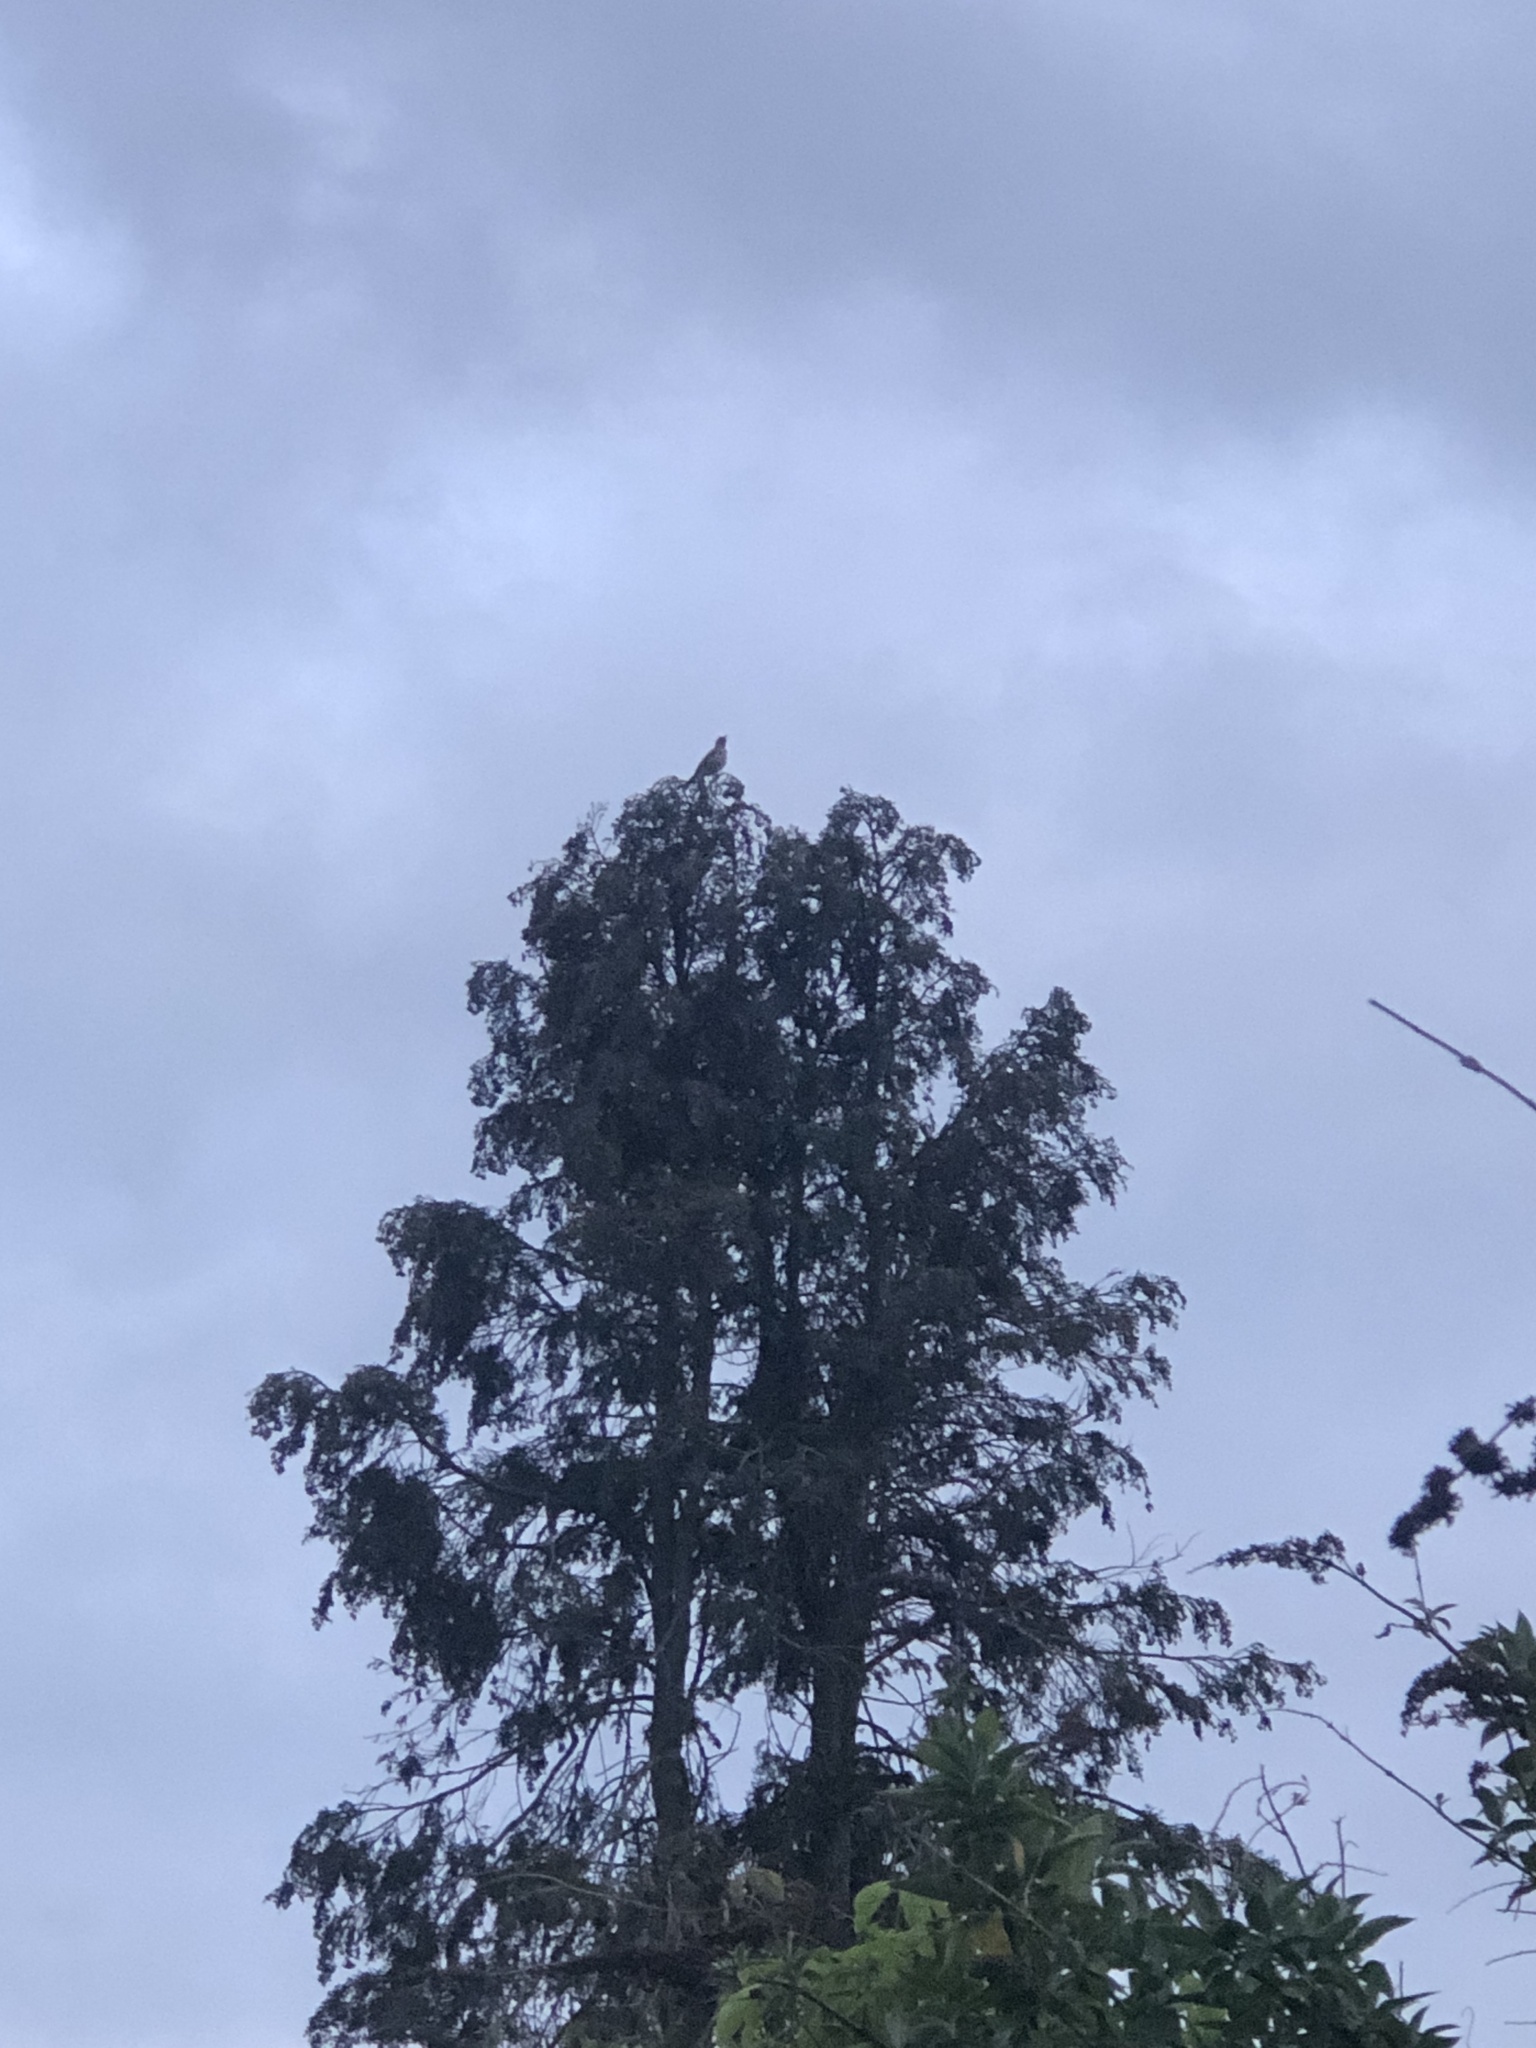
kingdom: Animalia
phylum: Chordata
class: Aves
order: Passeriformes
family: Turdidae
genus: Turdus
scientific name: Turdus philomelos
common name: Song thrush
